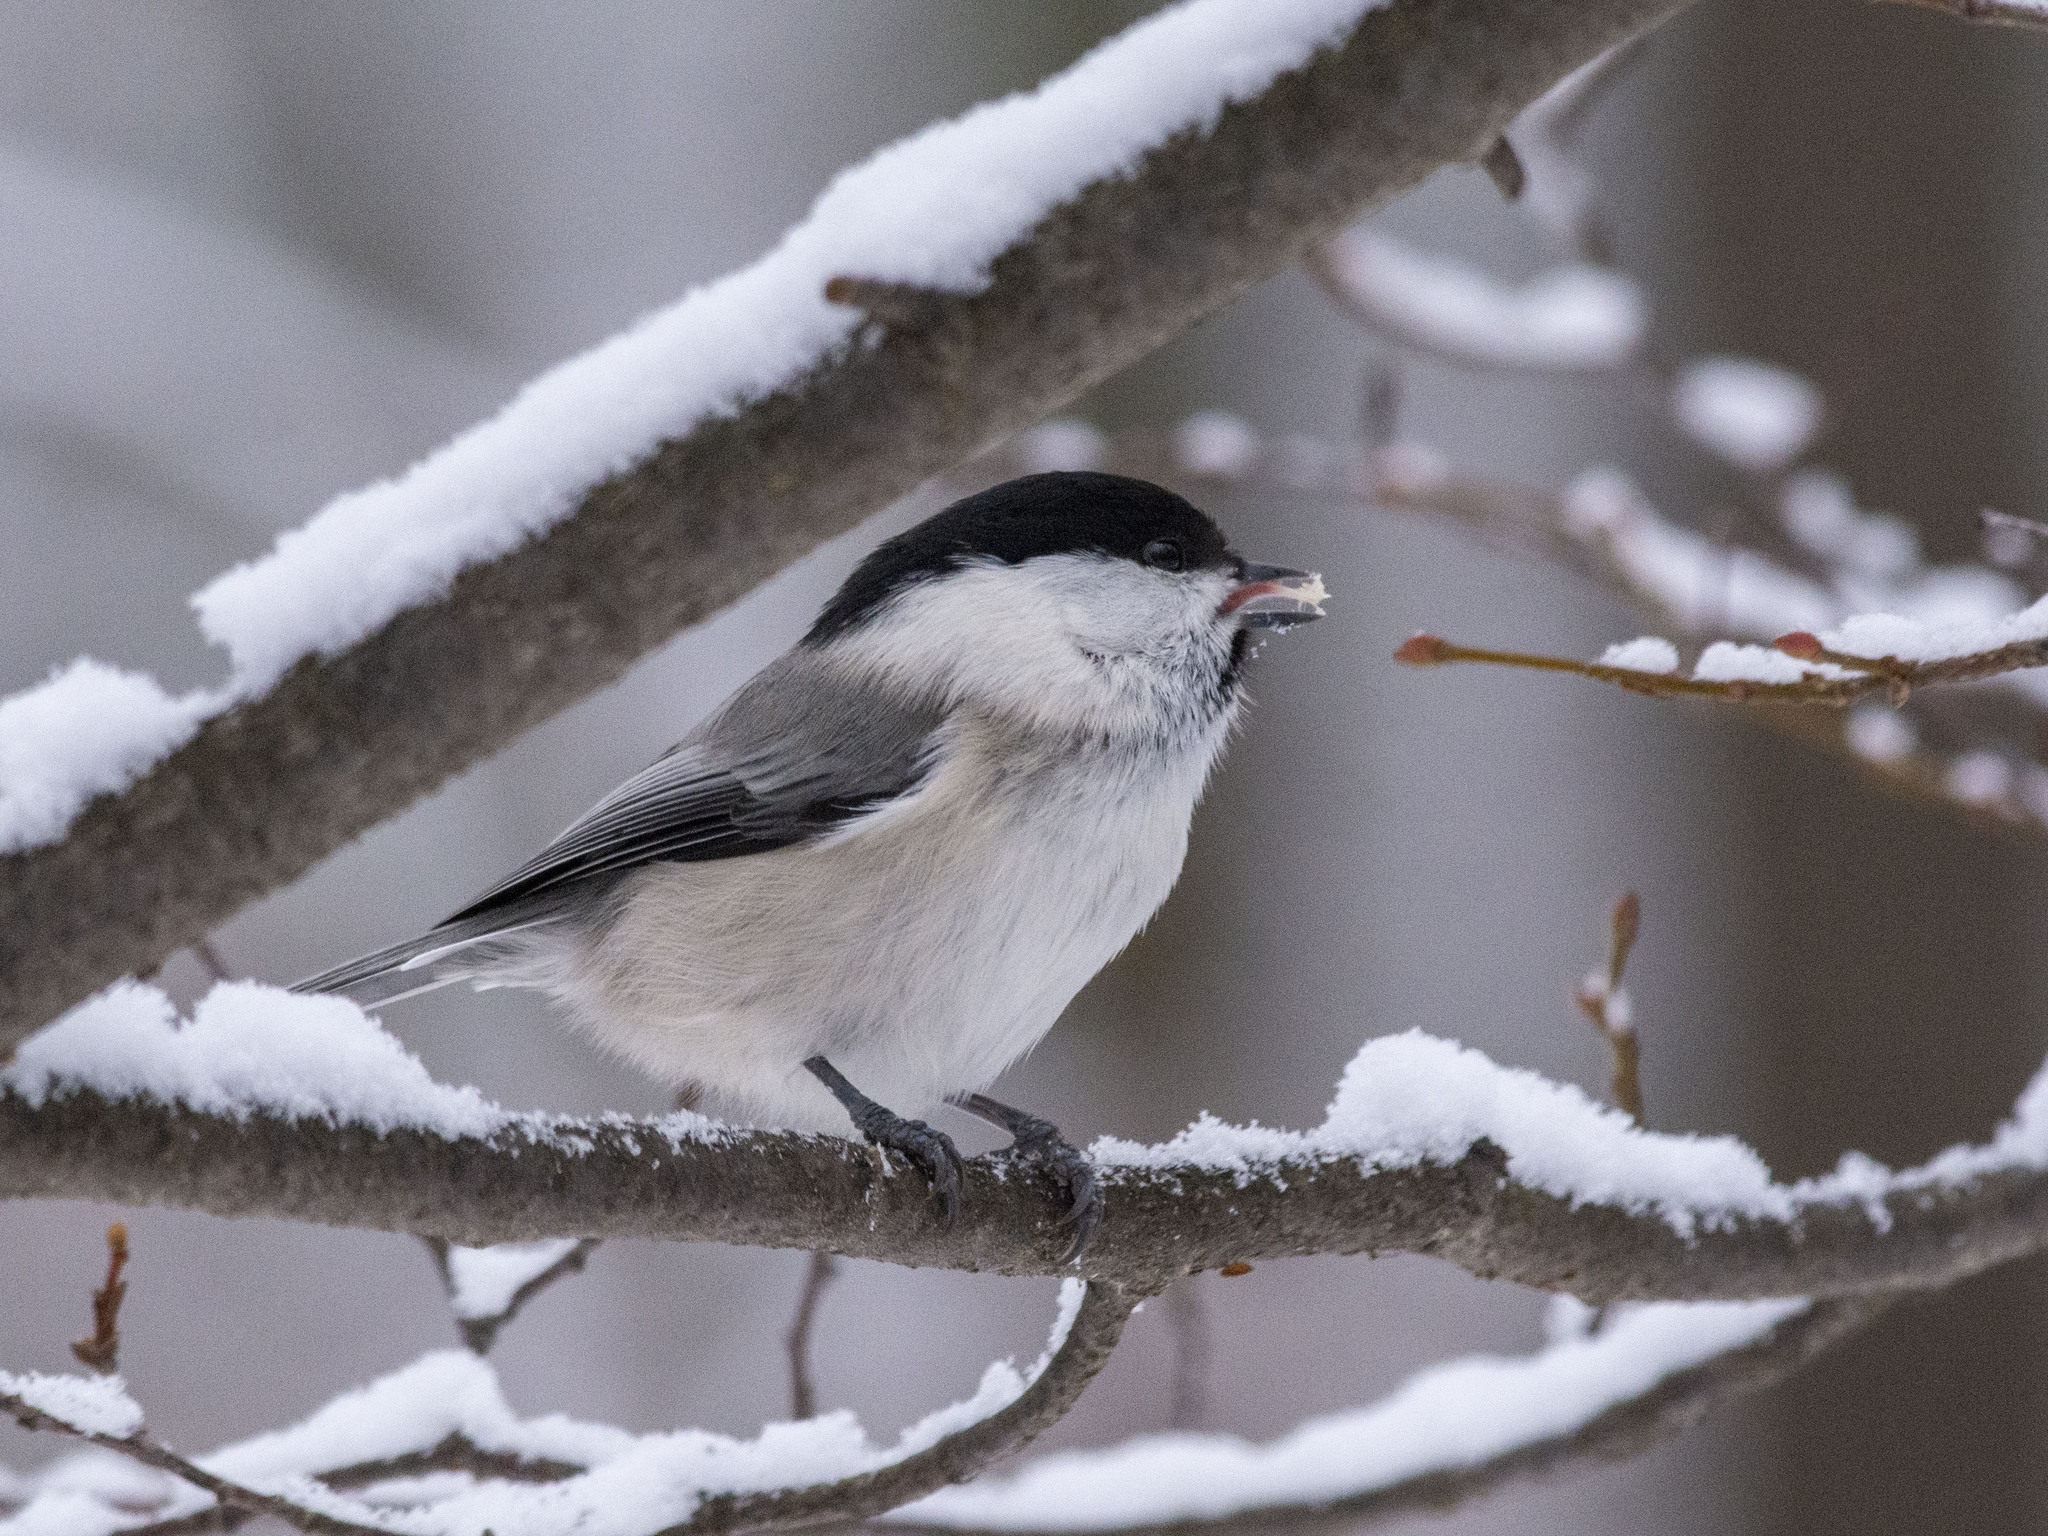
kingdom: Animalia
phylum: Chordata
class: Aves
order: Passeriformes
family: Paridae
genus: Poecile
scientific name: Poecile montanus
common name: Willow tit
